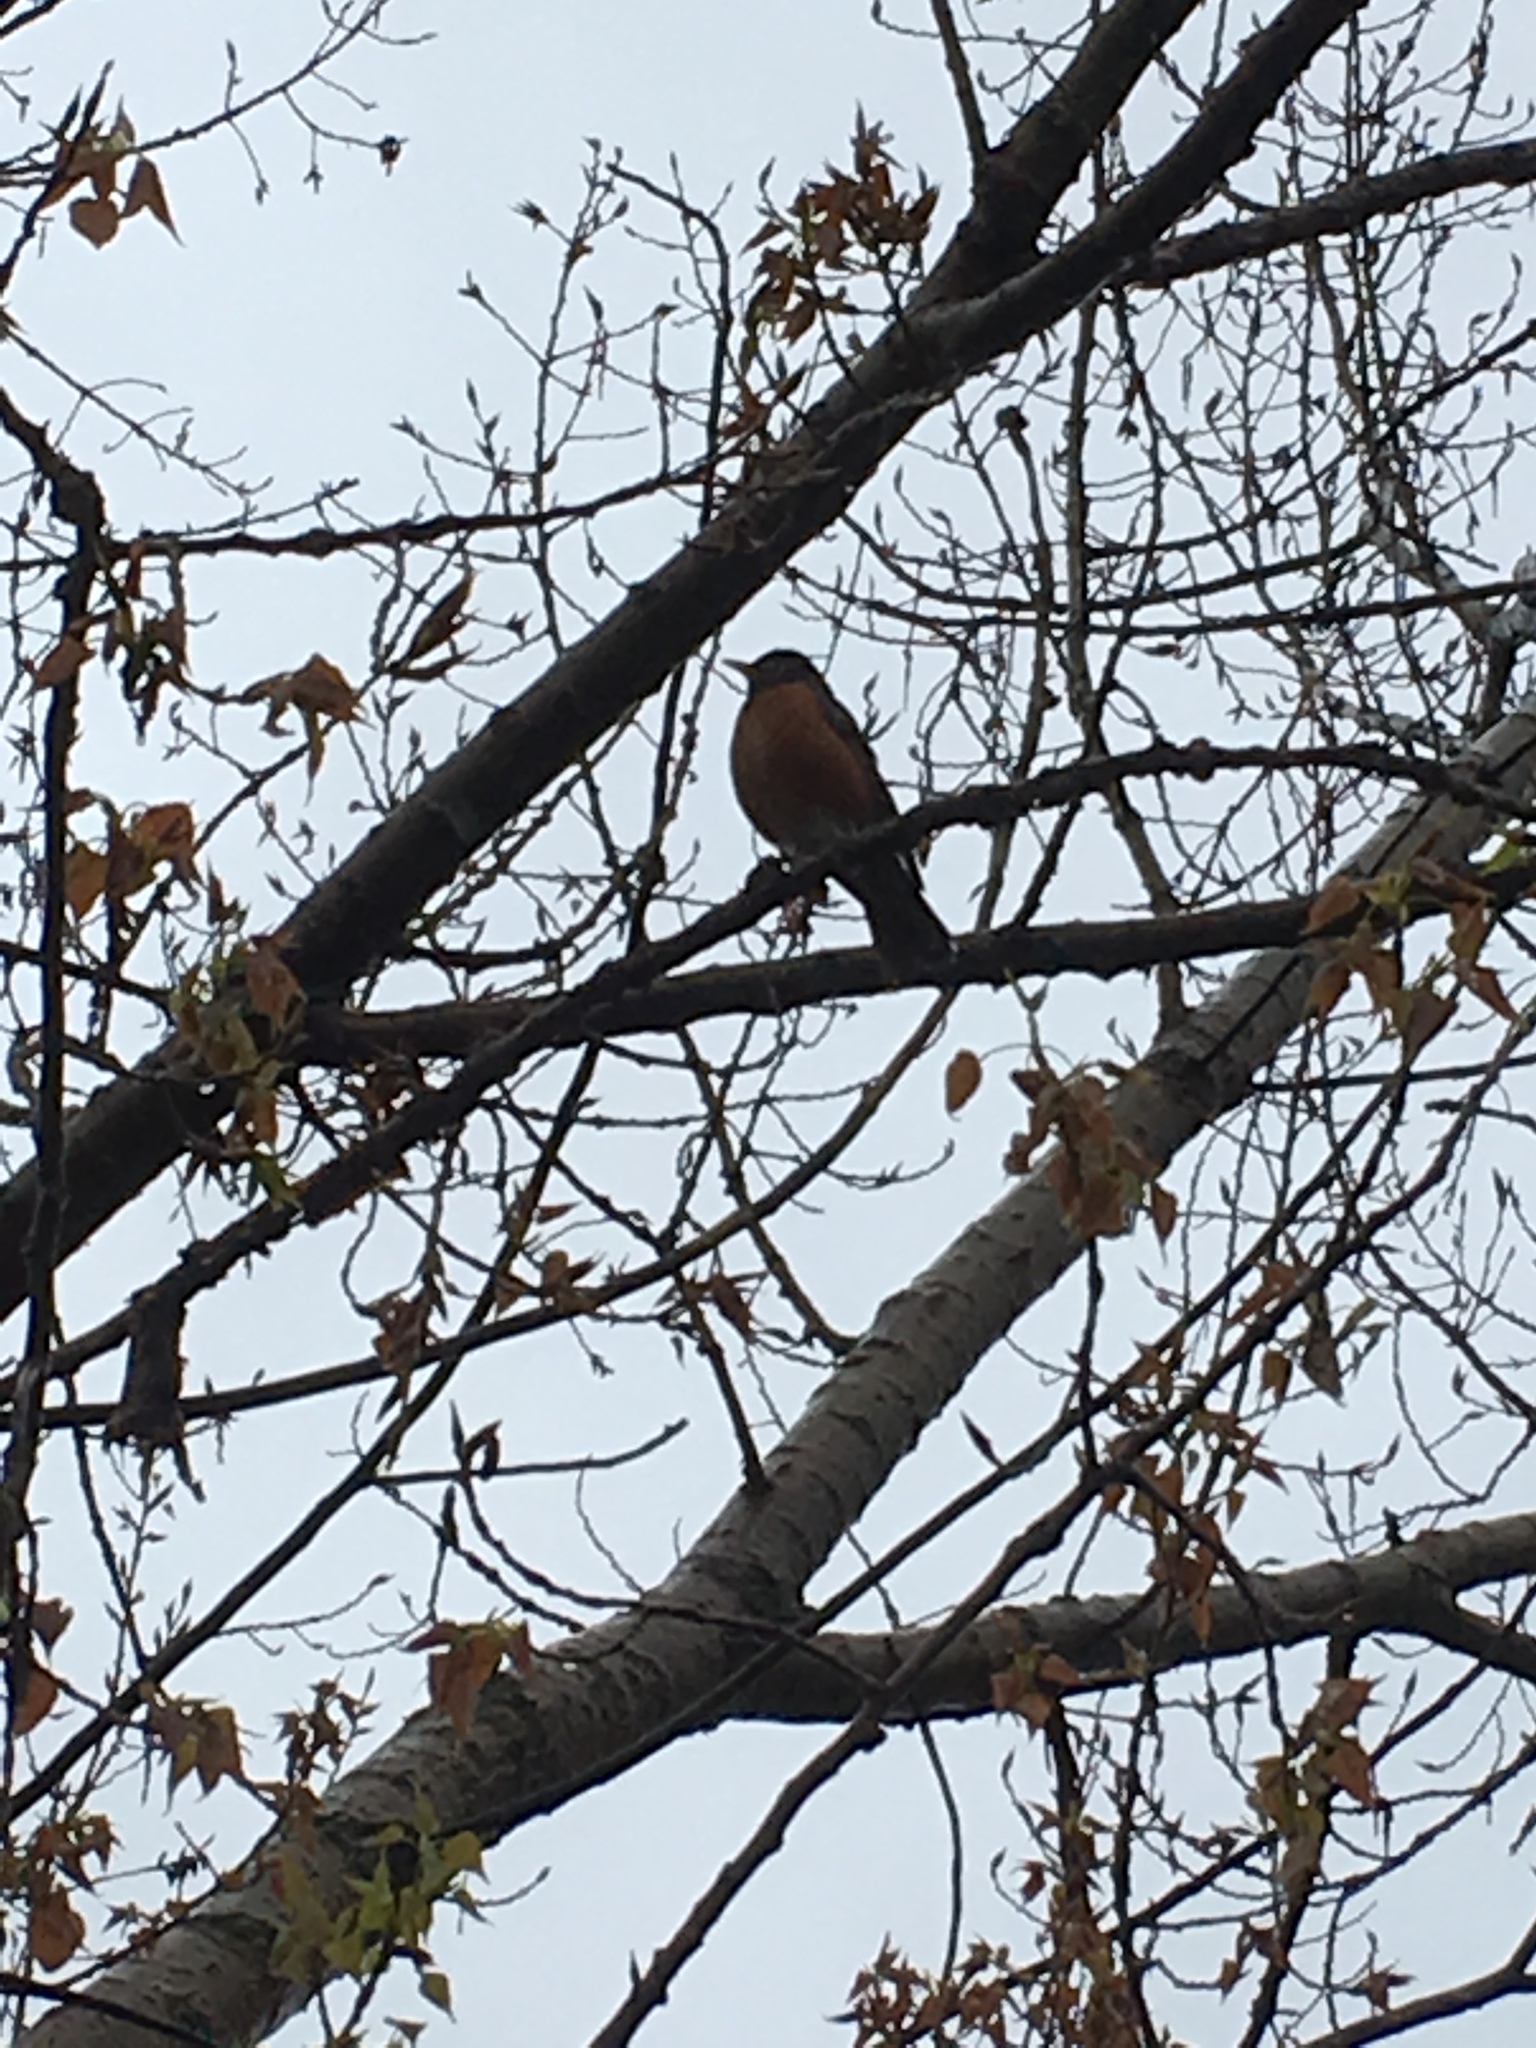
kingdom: Animalia
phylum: Chordata
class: Aves
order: Passeriformes
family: Turdidae
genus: Turdus
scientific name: Turdus migratorius
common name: American robin
